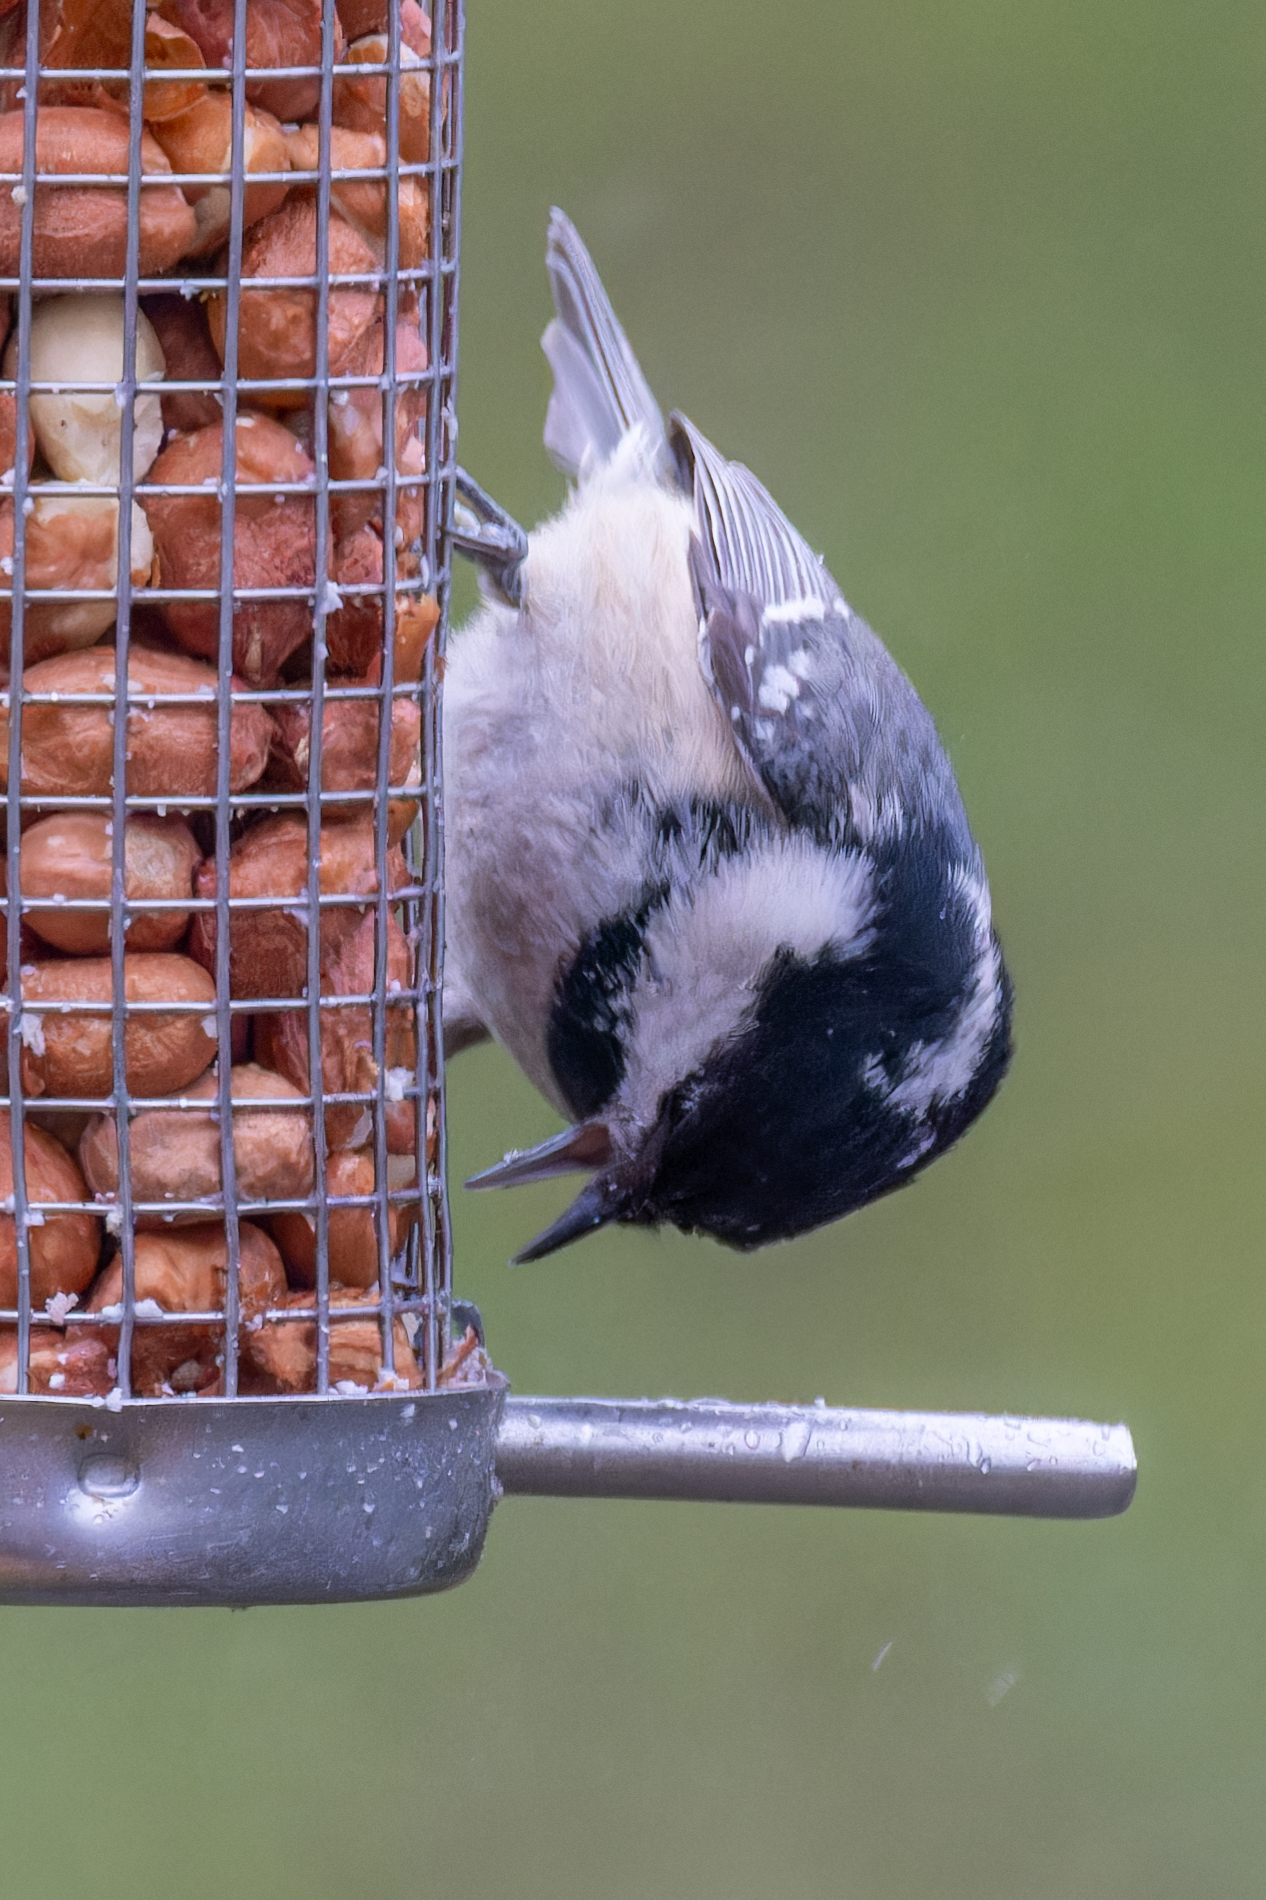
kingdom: Animalia
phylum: Chordata
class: Aves
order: Passeriformes
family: Paridae
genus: Periparus
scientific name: Periparus ater
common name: Coal tit
